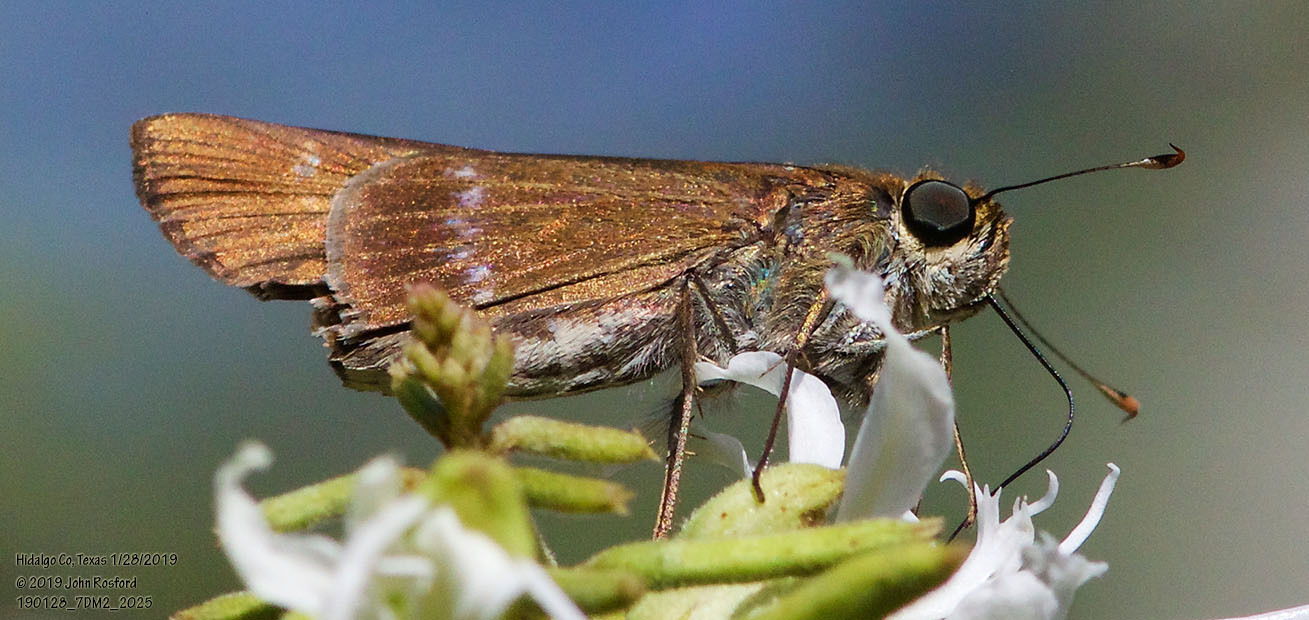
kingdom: Animalia
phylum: Arthropoda
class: Insecta
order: Lepidoptera
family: Hesperiidae
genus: Turesis
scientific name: Turesis lucas
